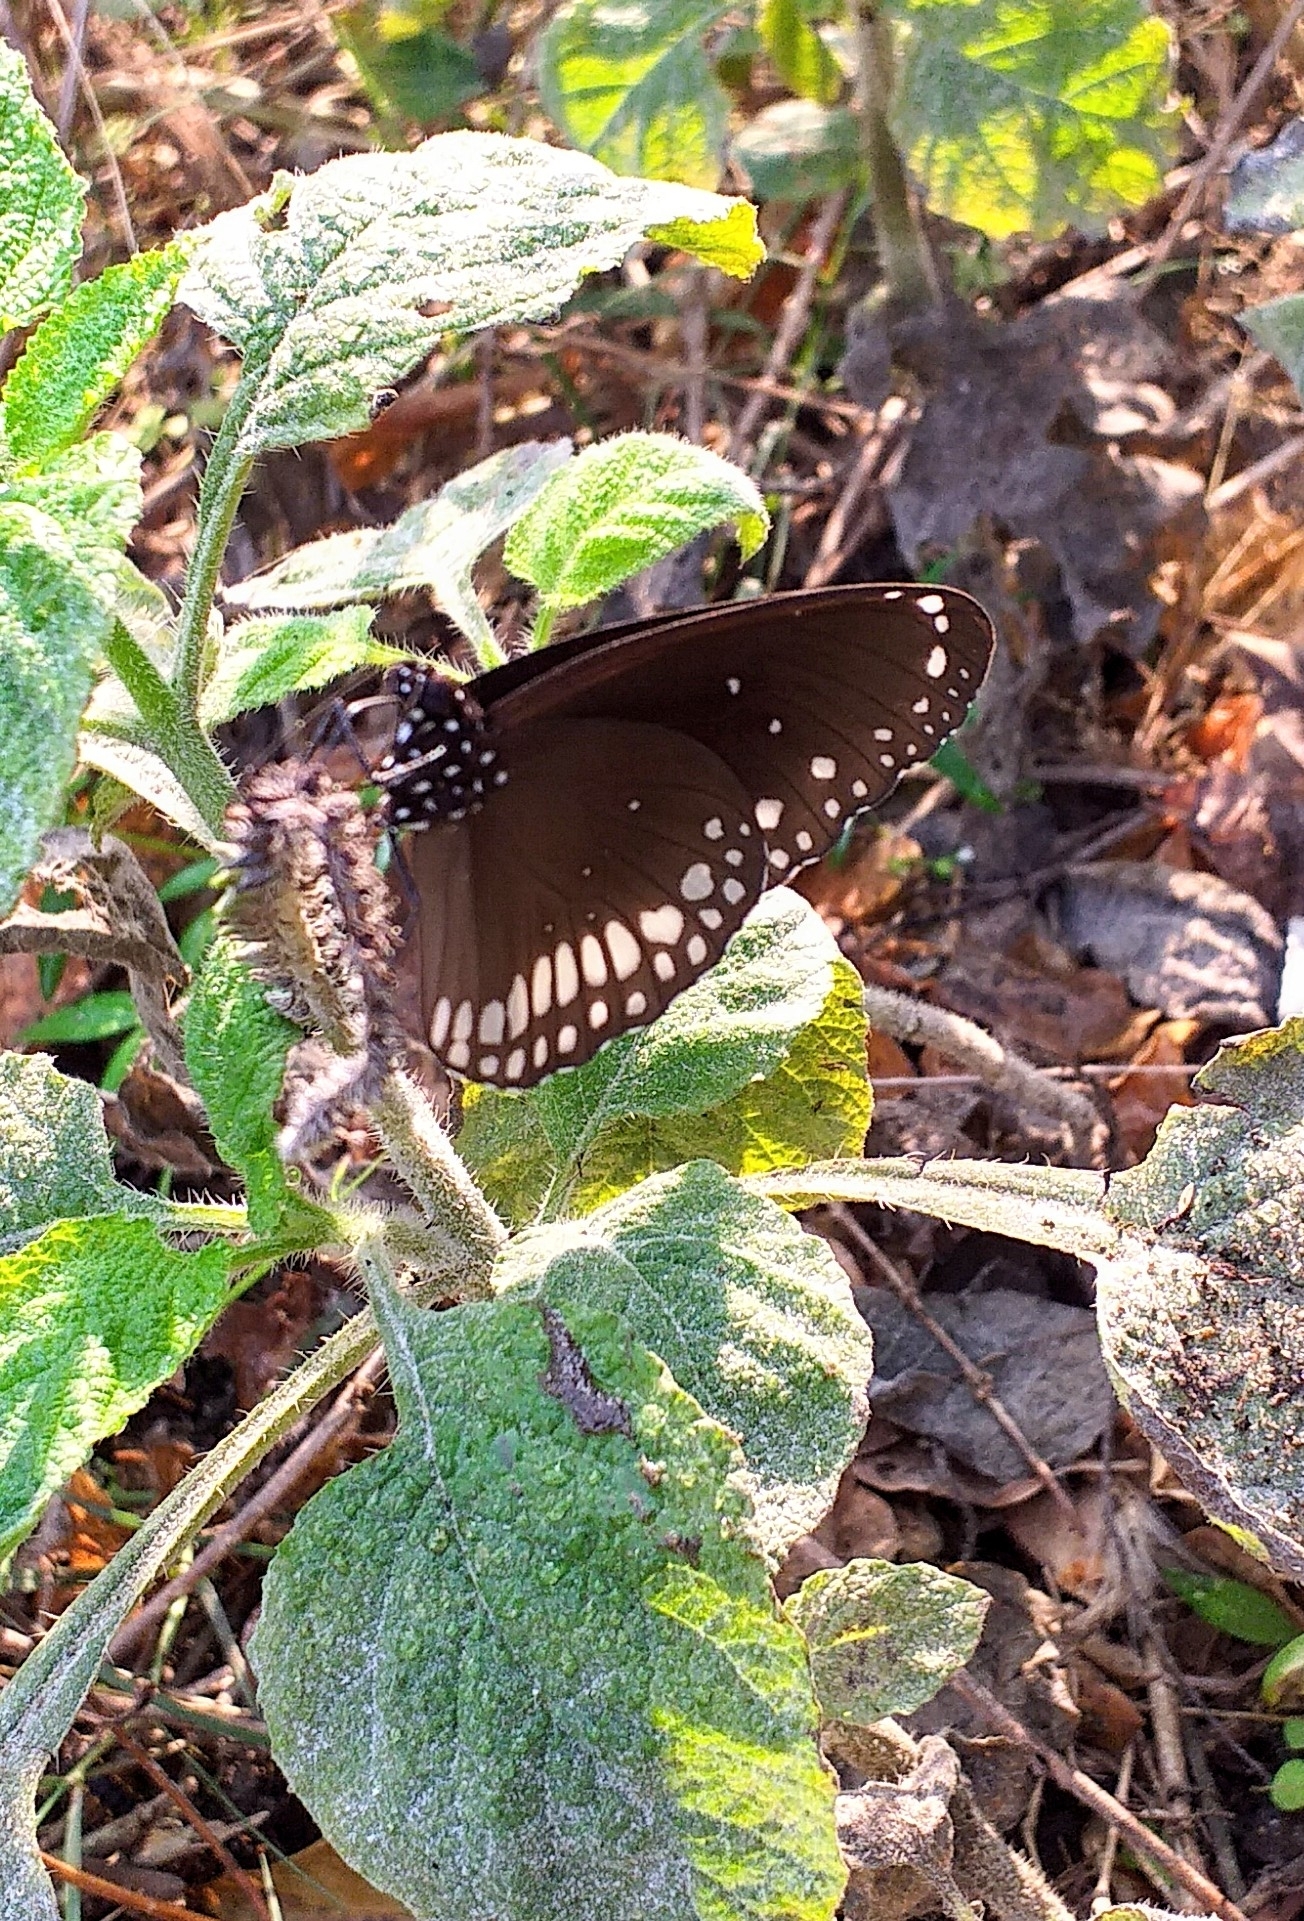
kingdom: Animalia
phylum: Arthropoda
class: Insecta
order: Lepidoptera
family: Nymphalidae
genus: Euploea
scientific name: Euploea core
